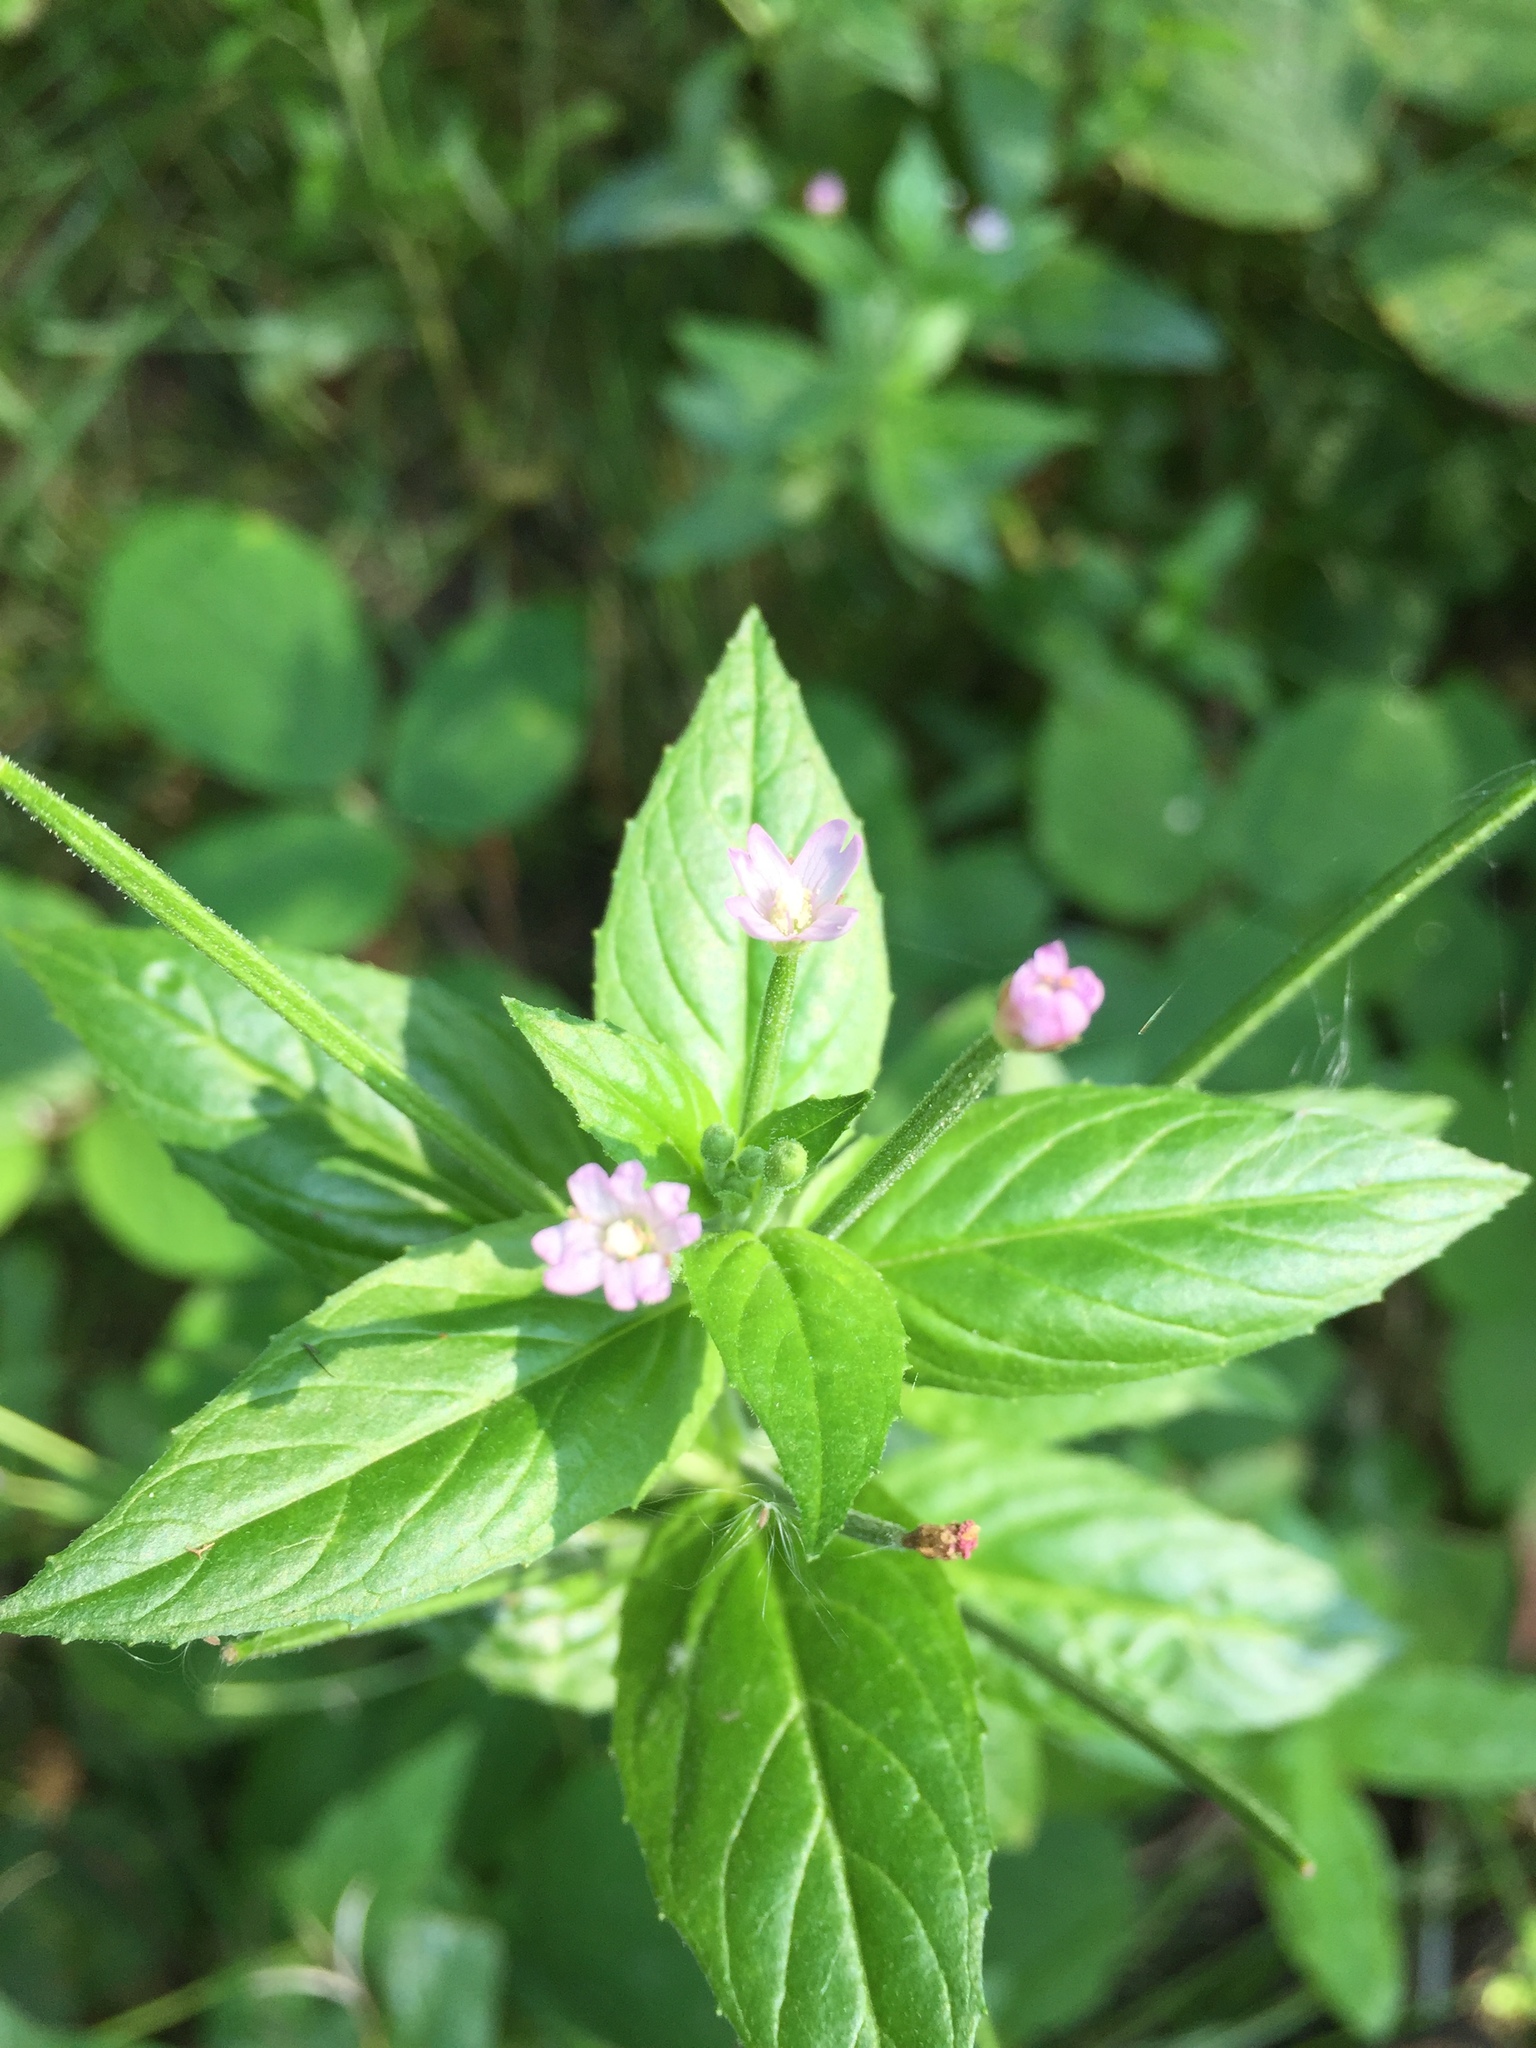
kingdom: Plantae
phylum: Tracheophyta
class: Magnoliopsida
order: Myrtales
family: Onagraceae
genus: Epilobium
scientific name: Epilobium ciliatum
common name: American willowherb
